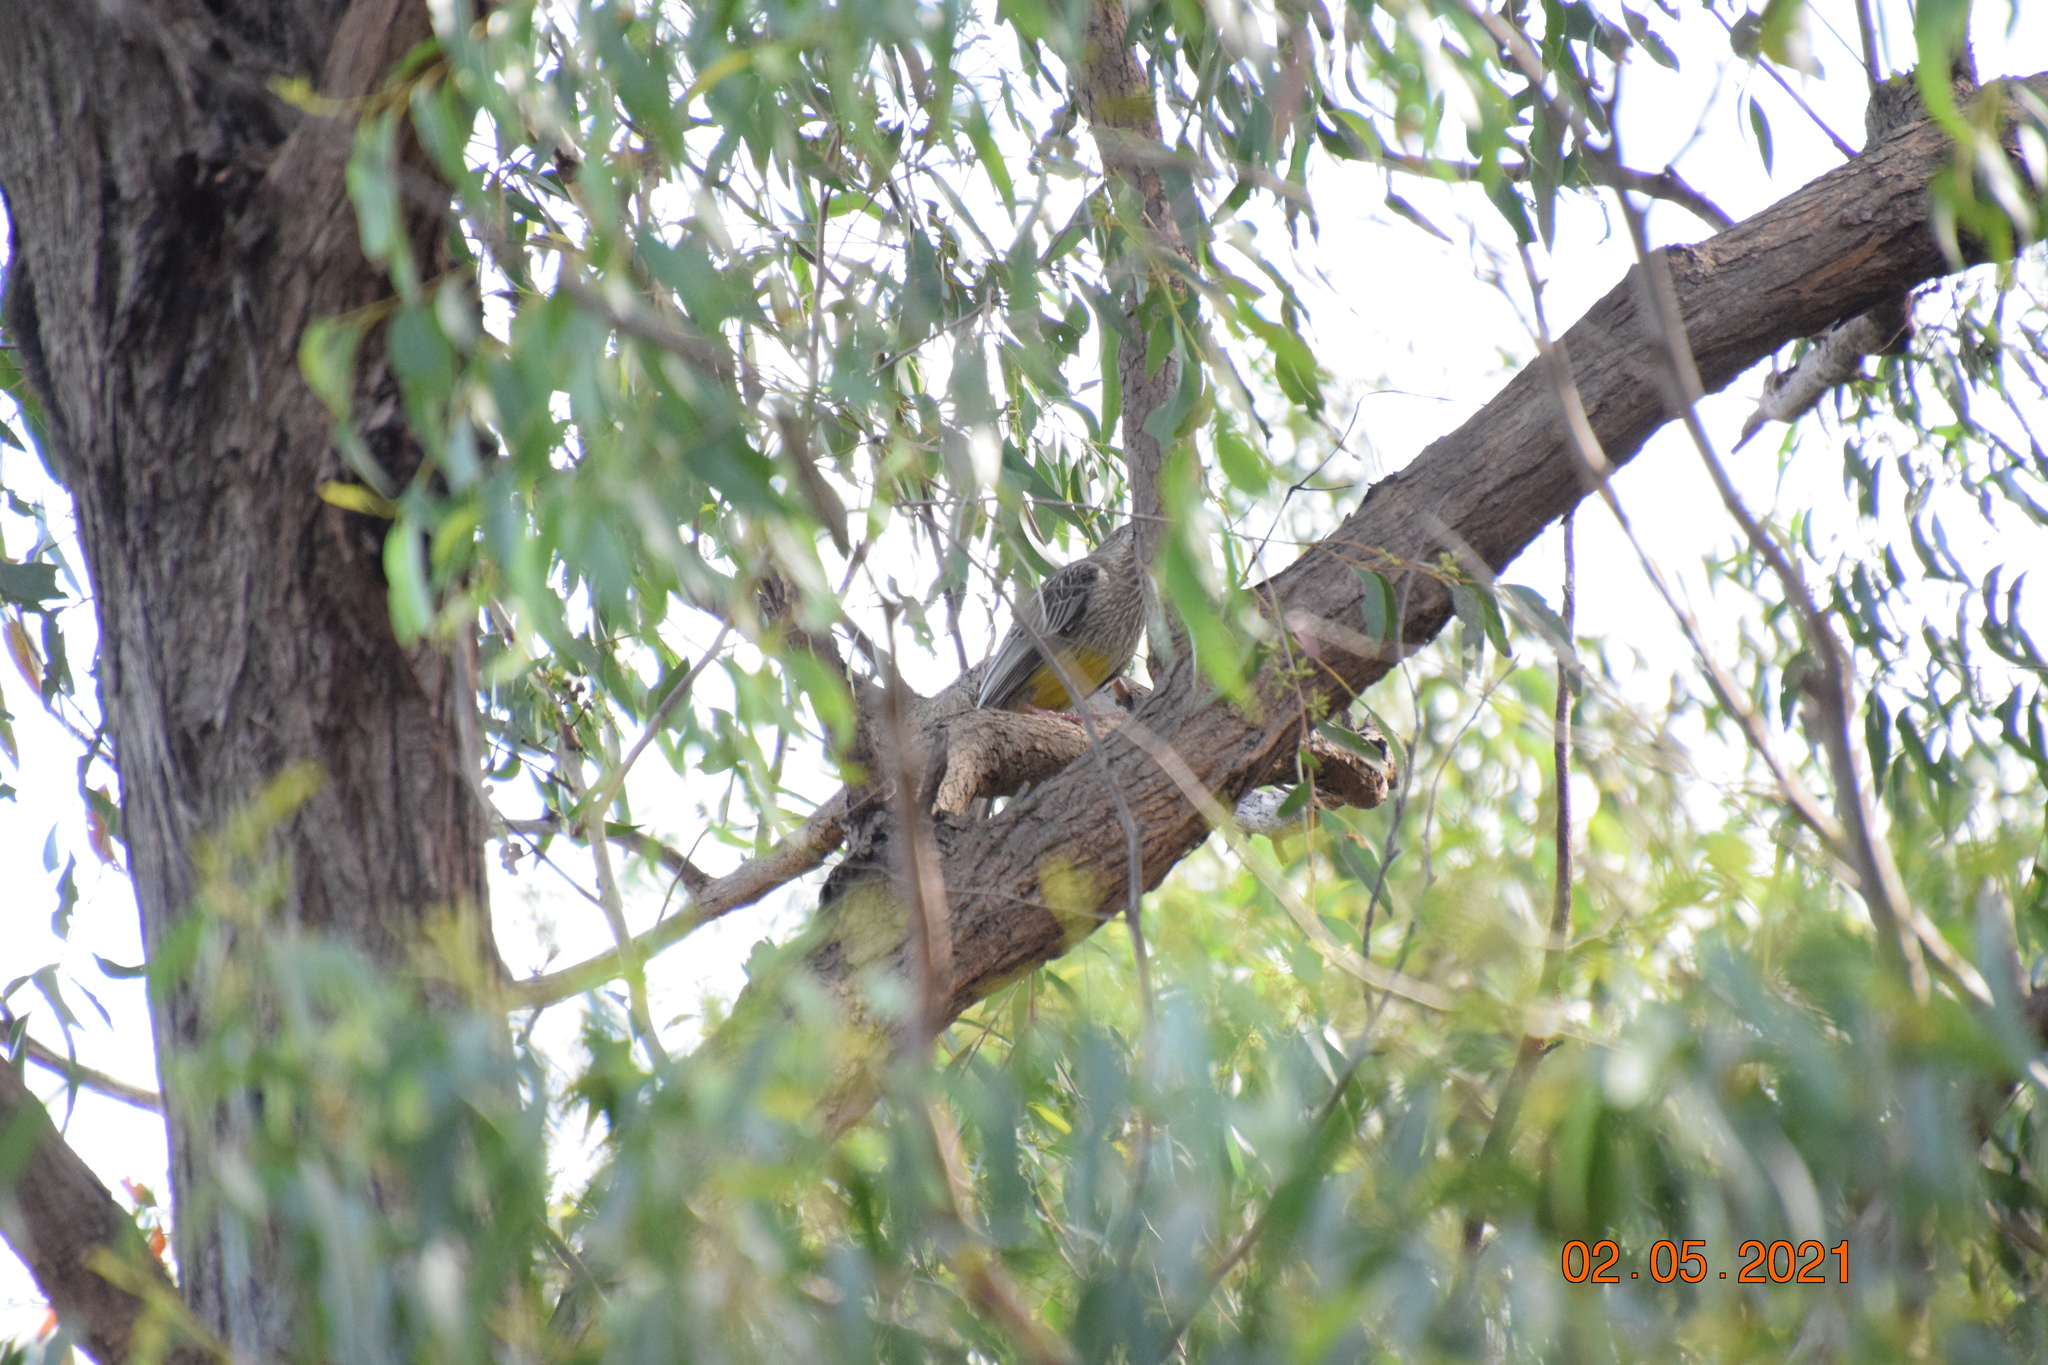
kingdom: Animalia
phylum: Chordata
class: Aves
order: Passeriformes
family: Meliphagidae
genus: Anthochaera
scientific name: Anthochaera carunculata
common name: Red wattlebird
